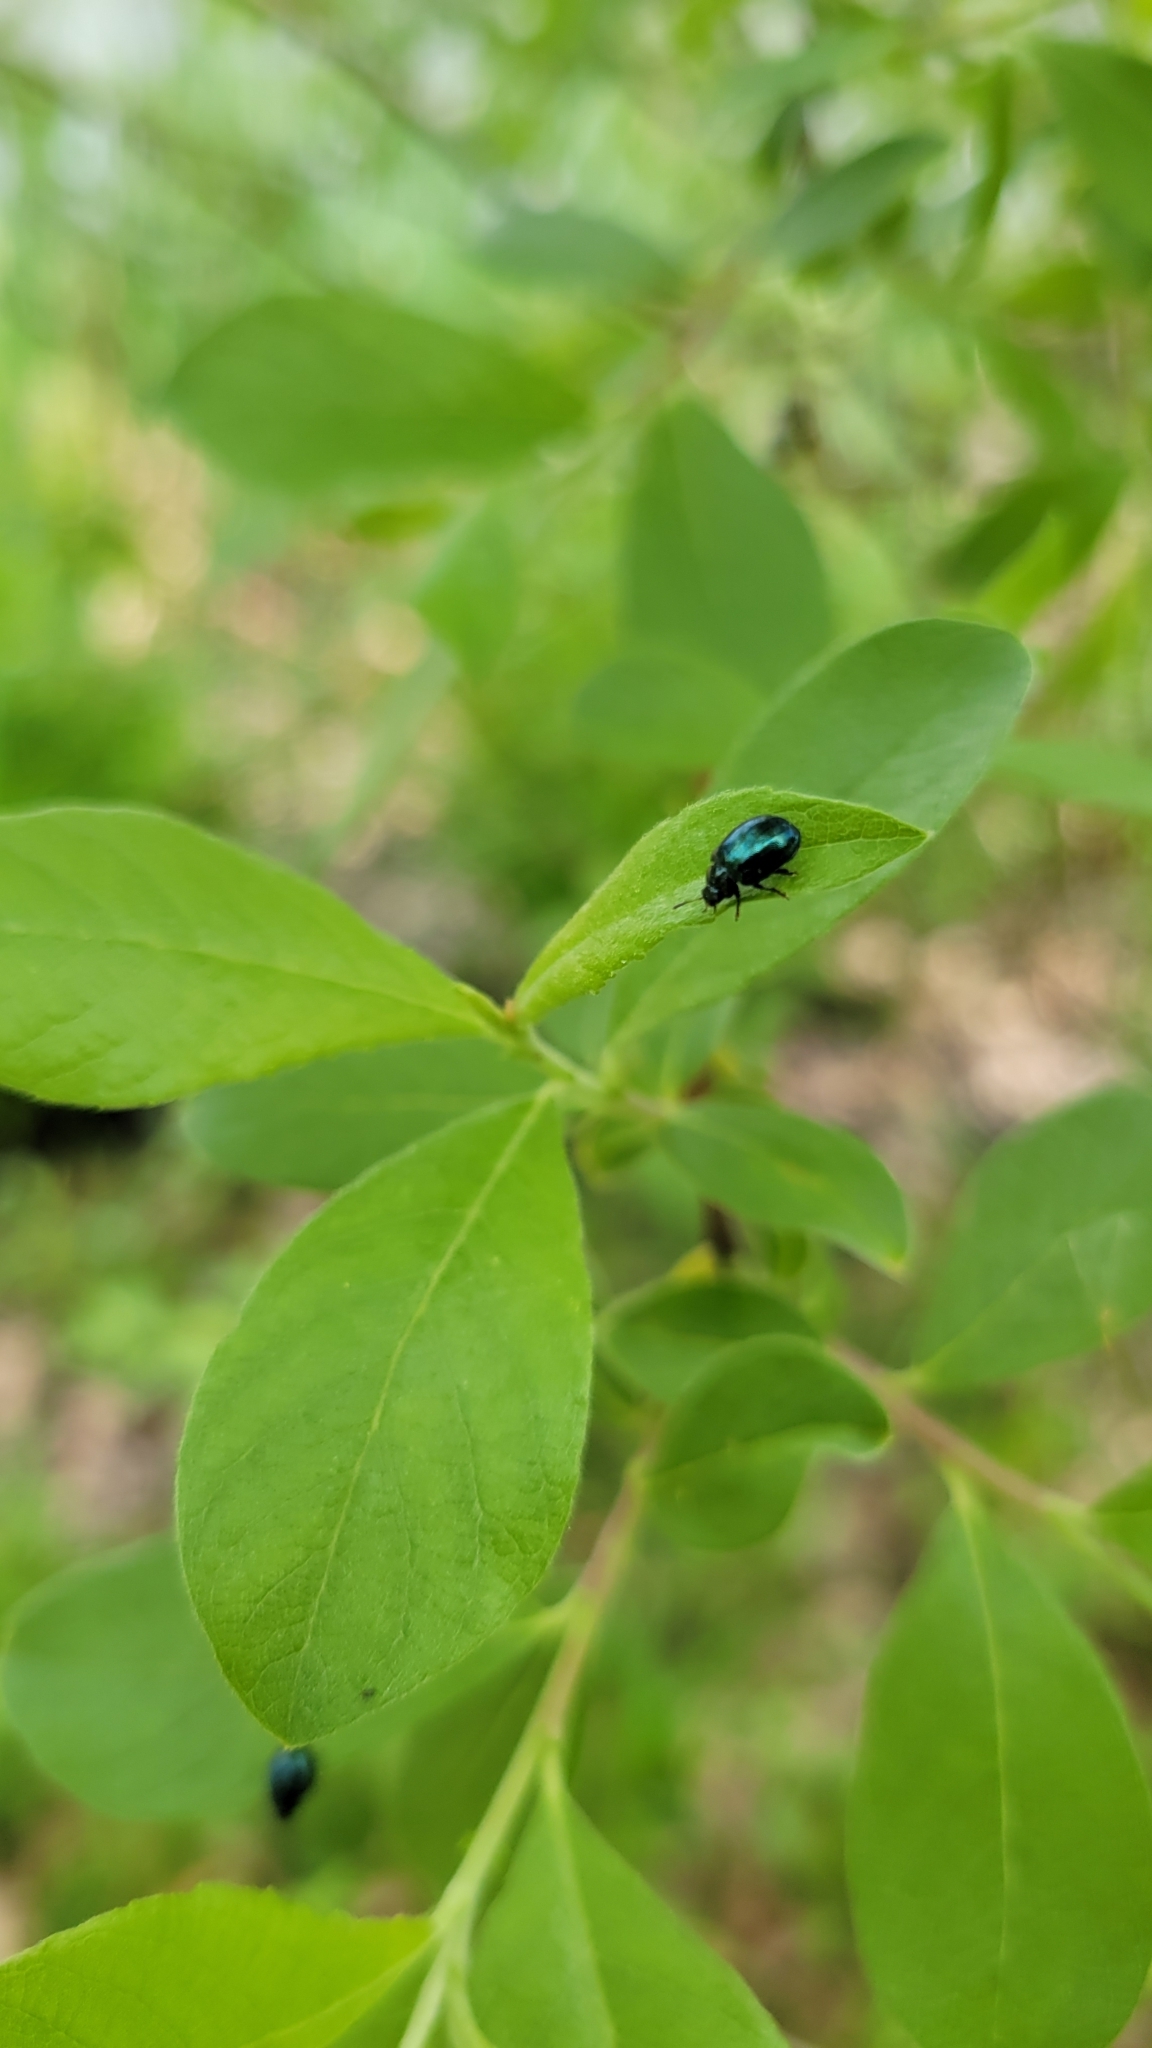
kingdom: Animalia
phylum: Arthropoda
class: Insecta
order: Coleoptera
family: Chrysomelidae
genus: Plagiodera
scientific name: Plagiodera versicolora
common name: Imported willow leaf beetle
